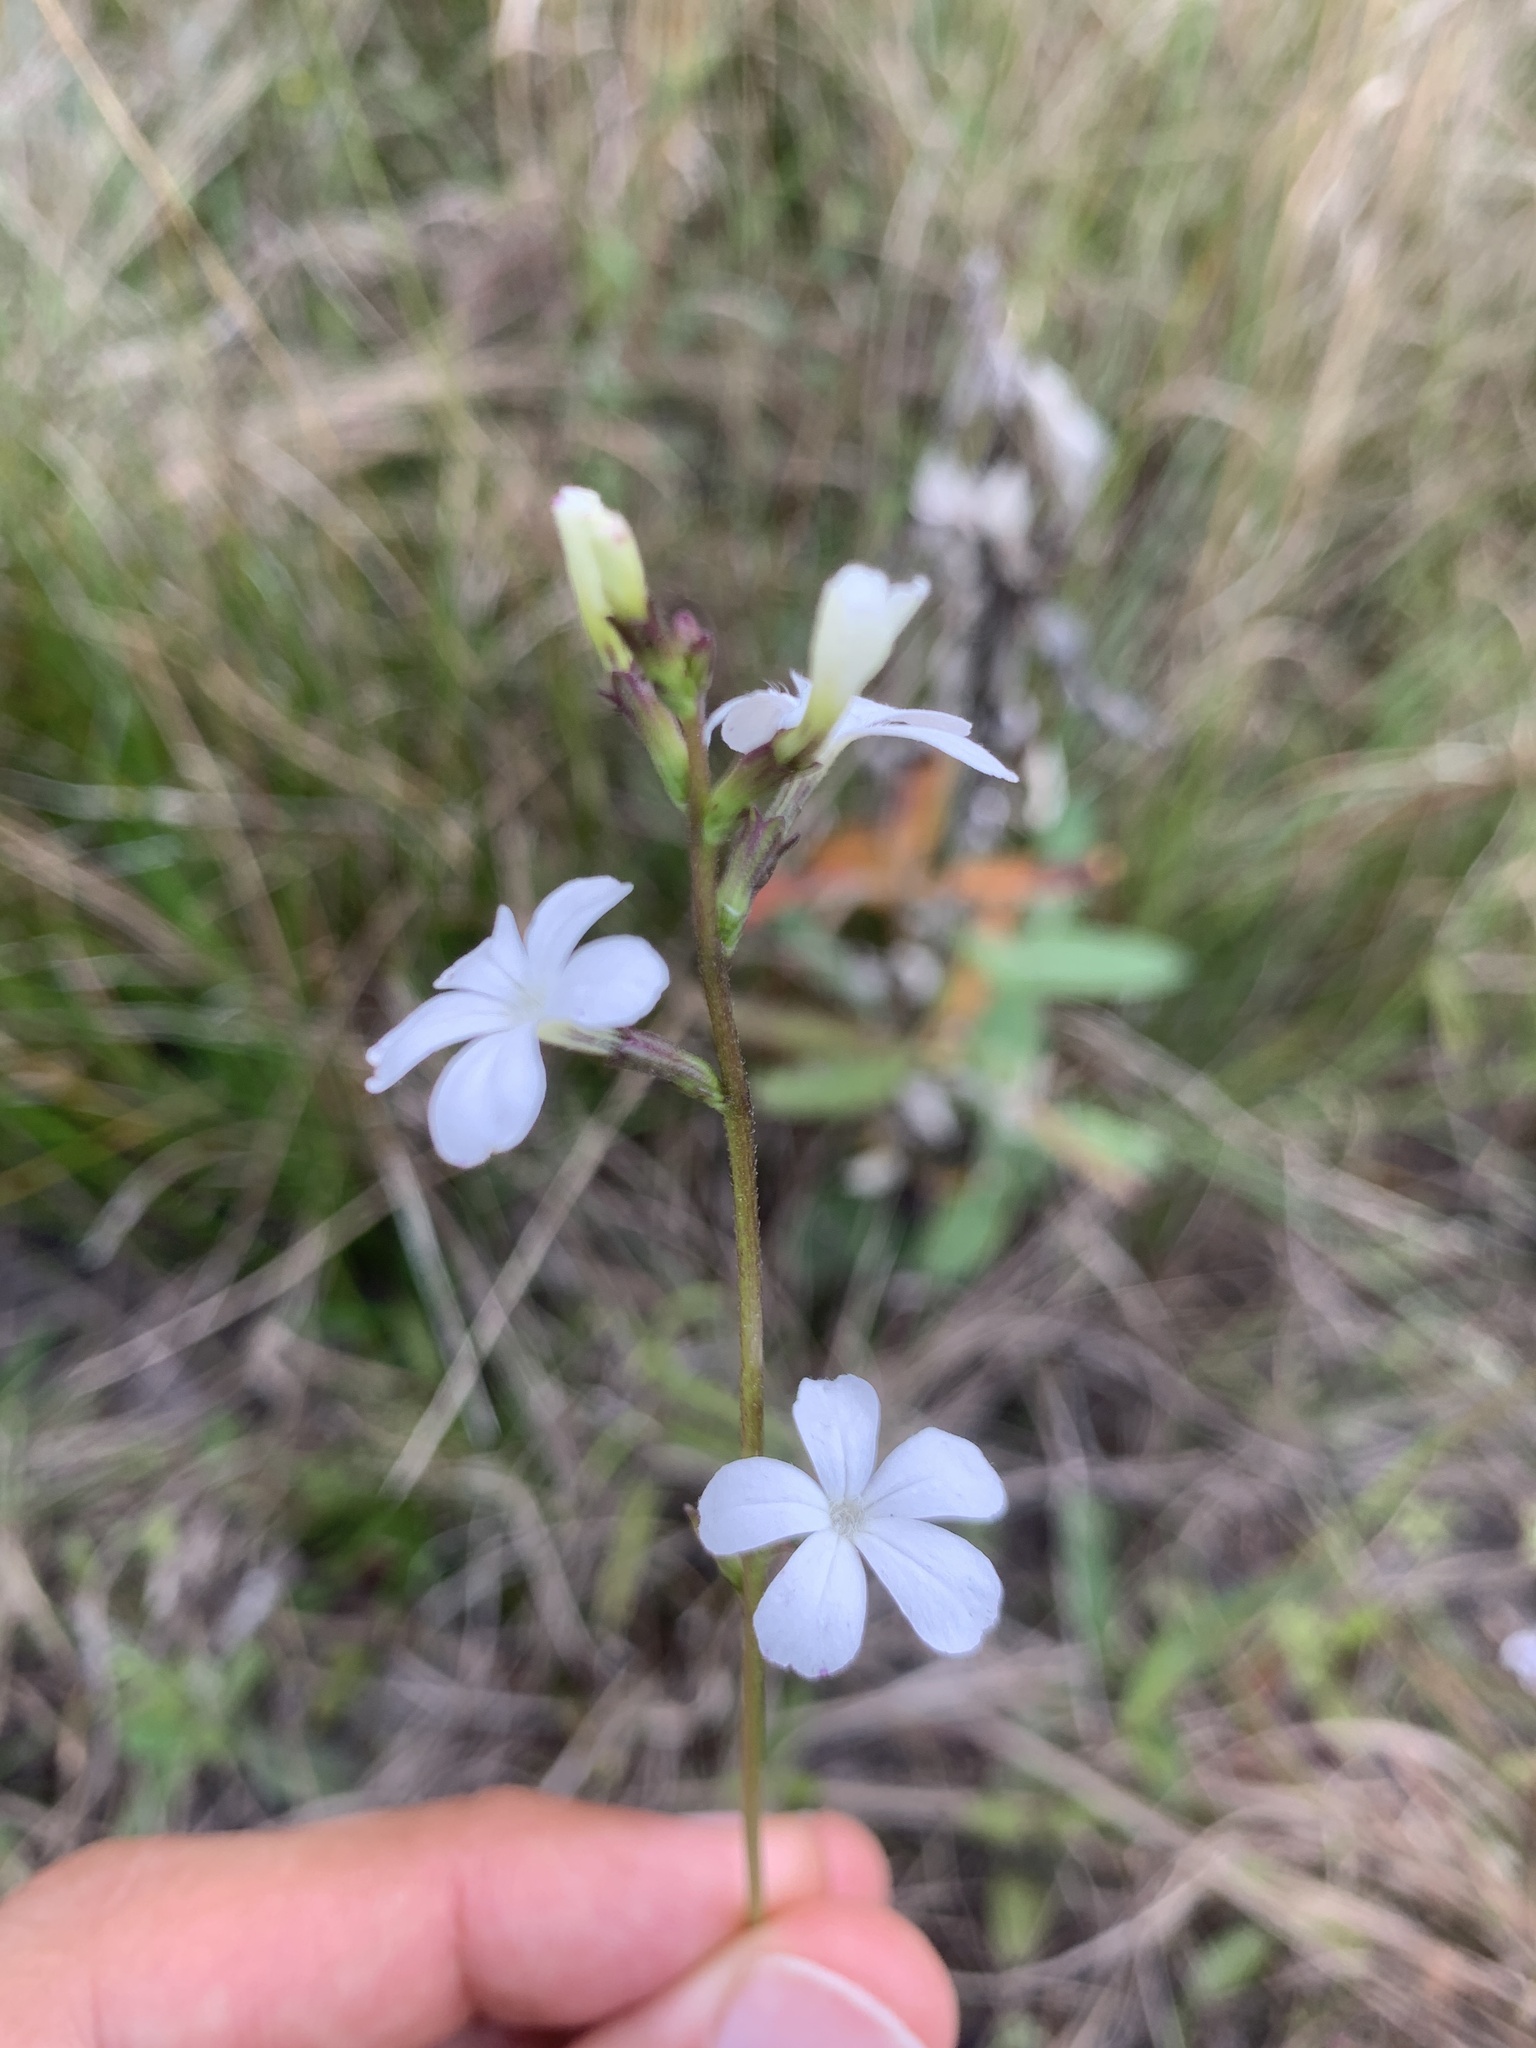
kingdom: Plantae
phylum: Tracheophyta
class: Magnoliopsida
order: Lamiales
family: Orobanchaceae
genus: Buchnera
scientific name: Buchnera floridana
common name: Florida bluehearts
